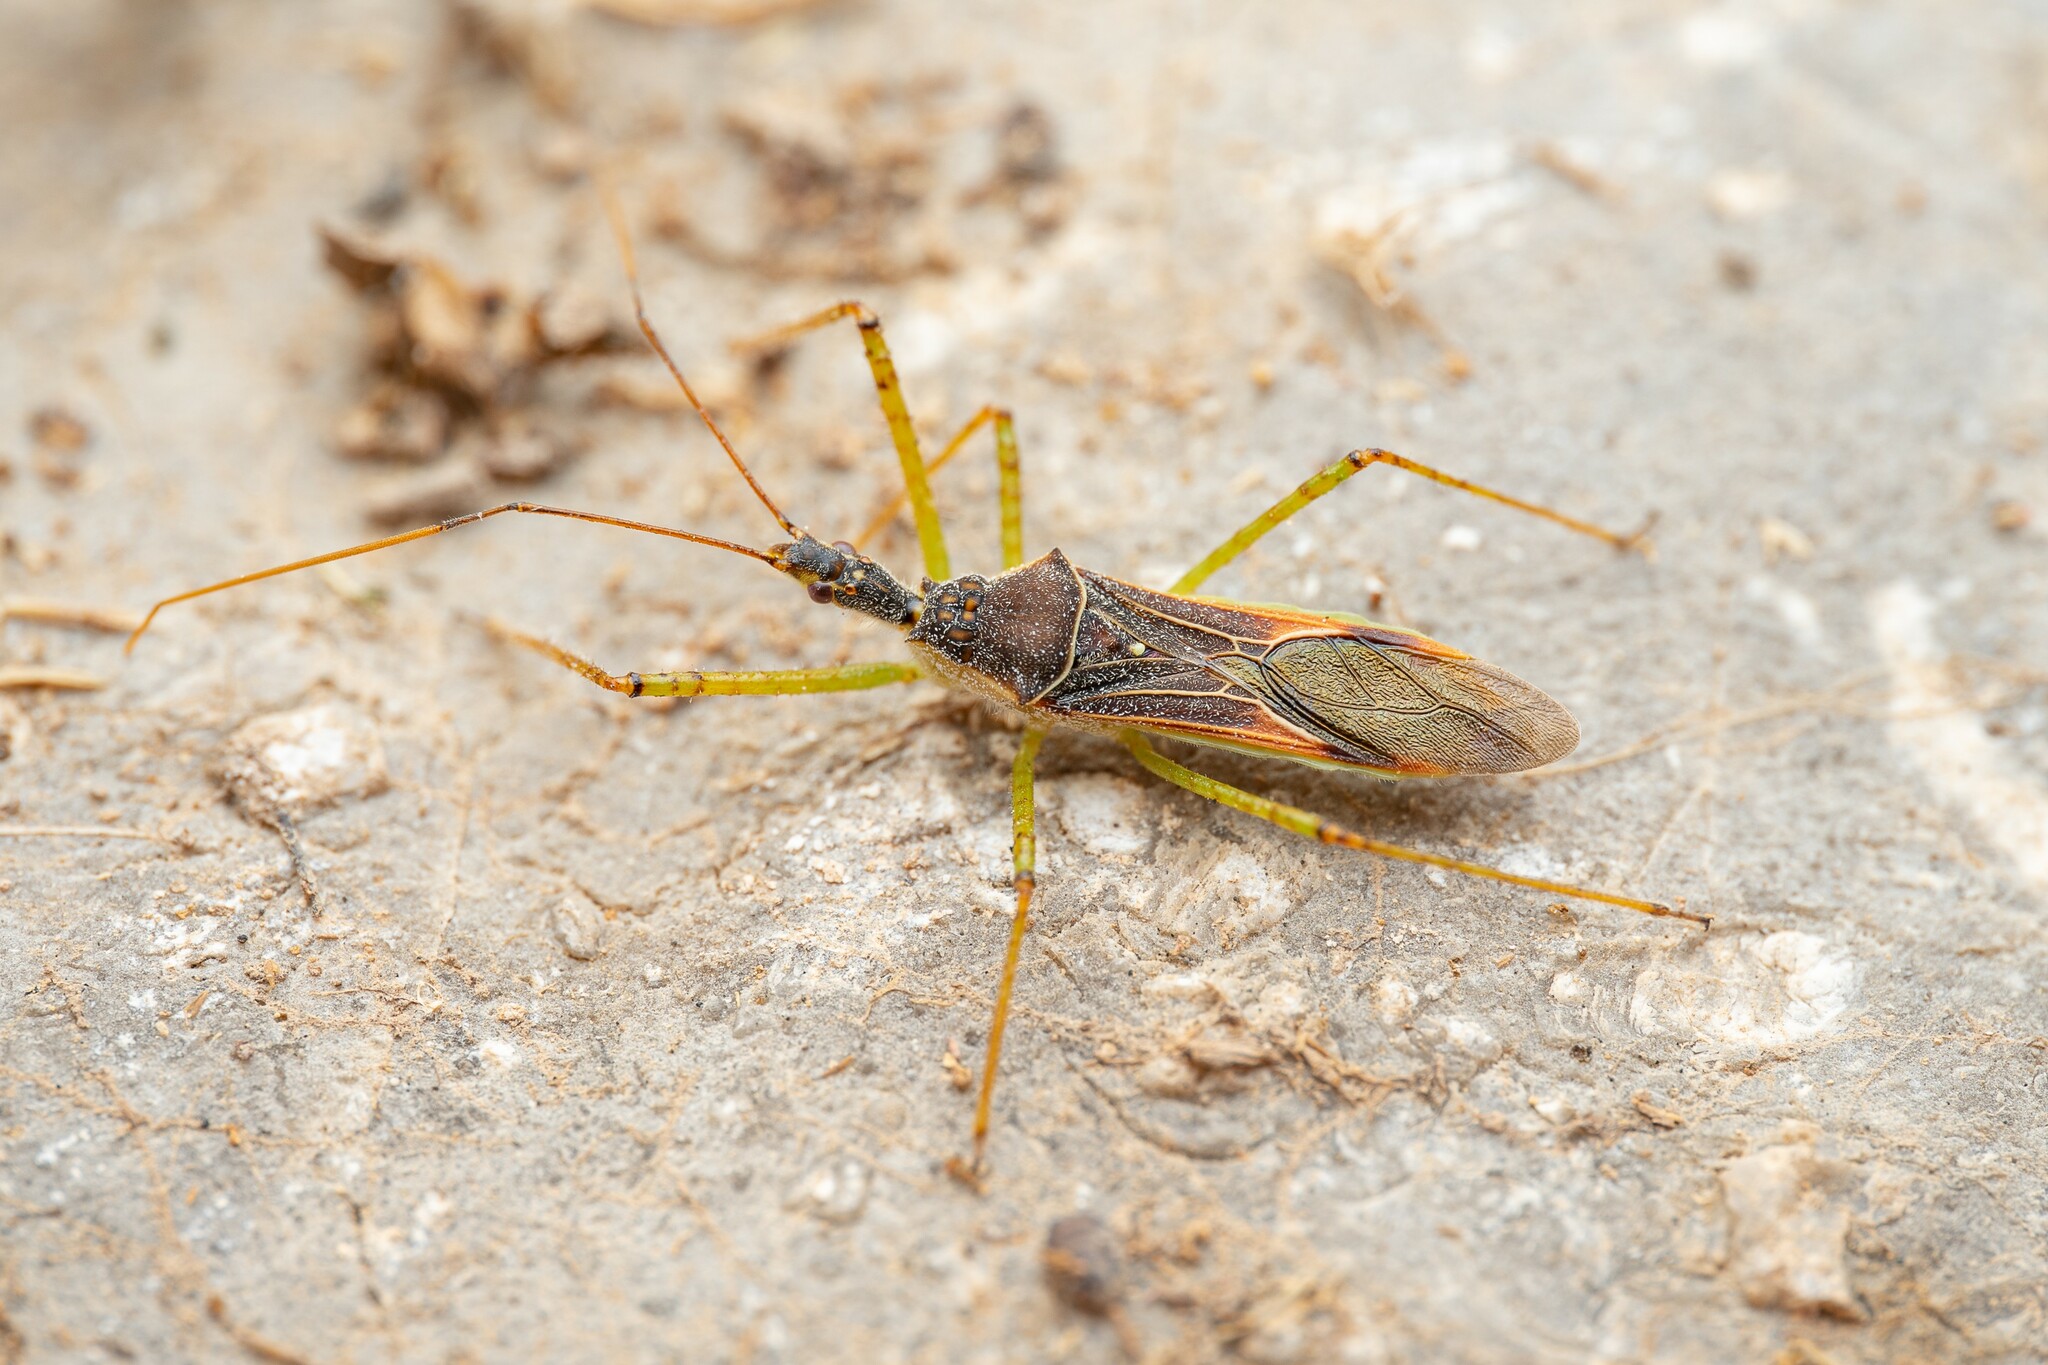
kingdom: Animalia
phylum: Arthropoda
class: Insecta
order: Hemiptera
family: Reduviidae
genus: Zelus
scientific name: Zelus renardii
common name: Assassin bug
